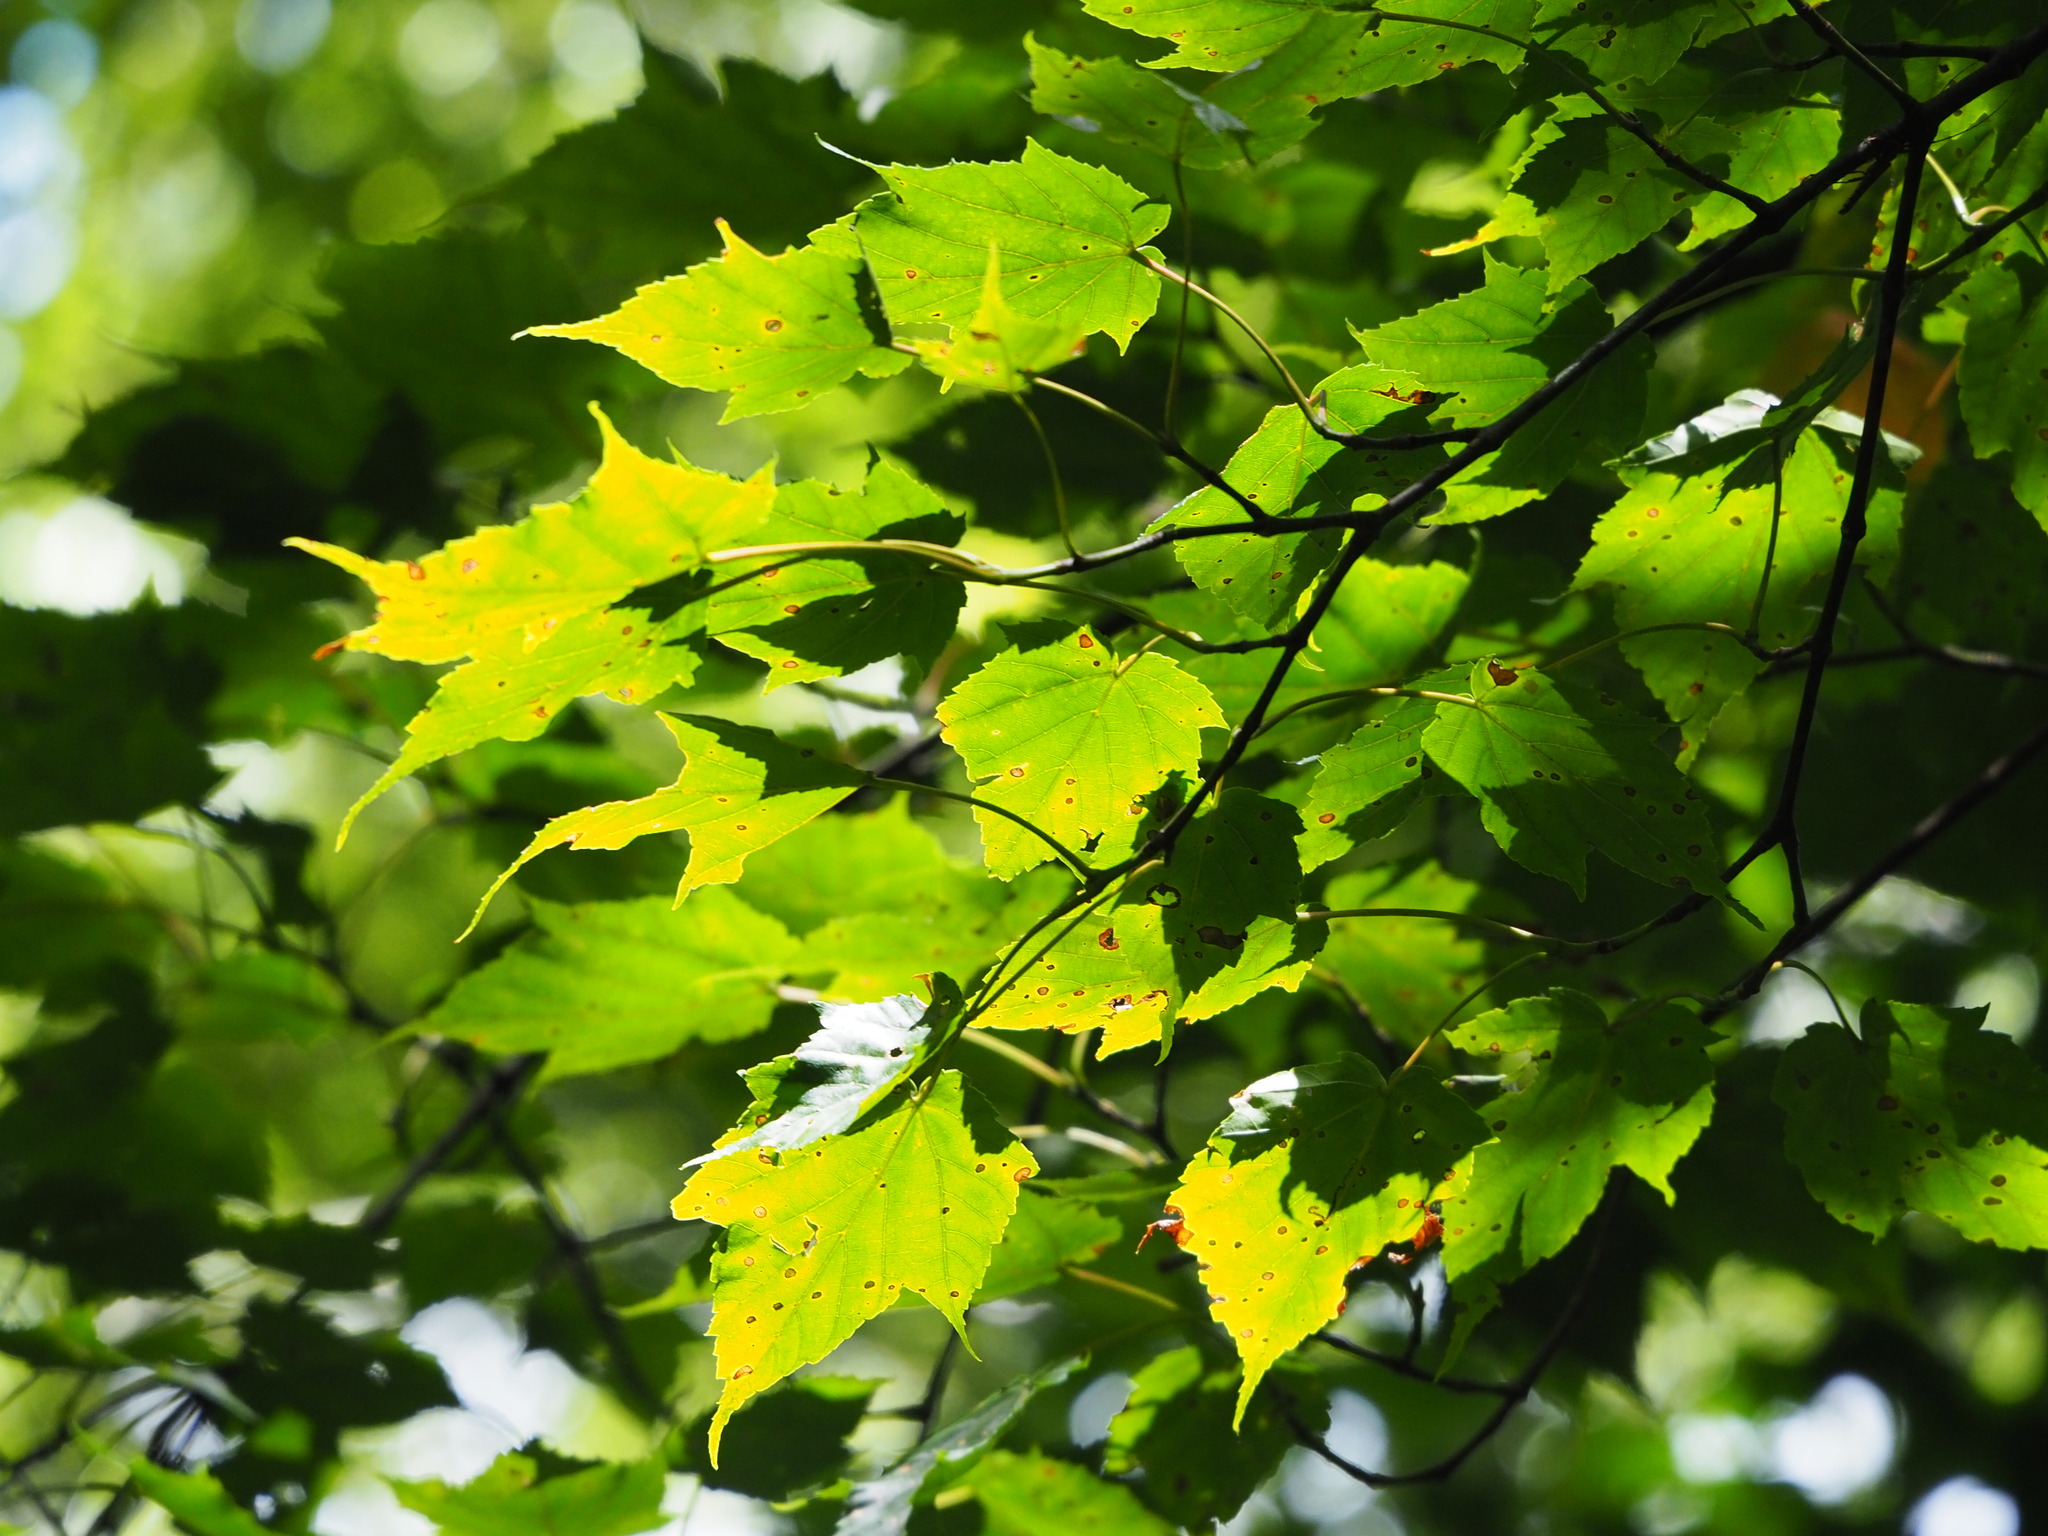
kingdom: Plantae
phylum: Tracheophyta
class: Magnoliopsida
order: Sapindales
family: Sapindaceae
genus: Acer
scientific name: Acer caudatifolium
